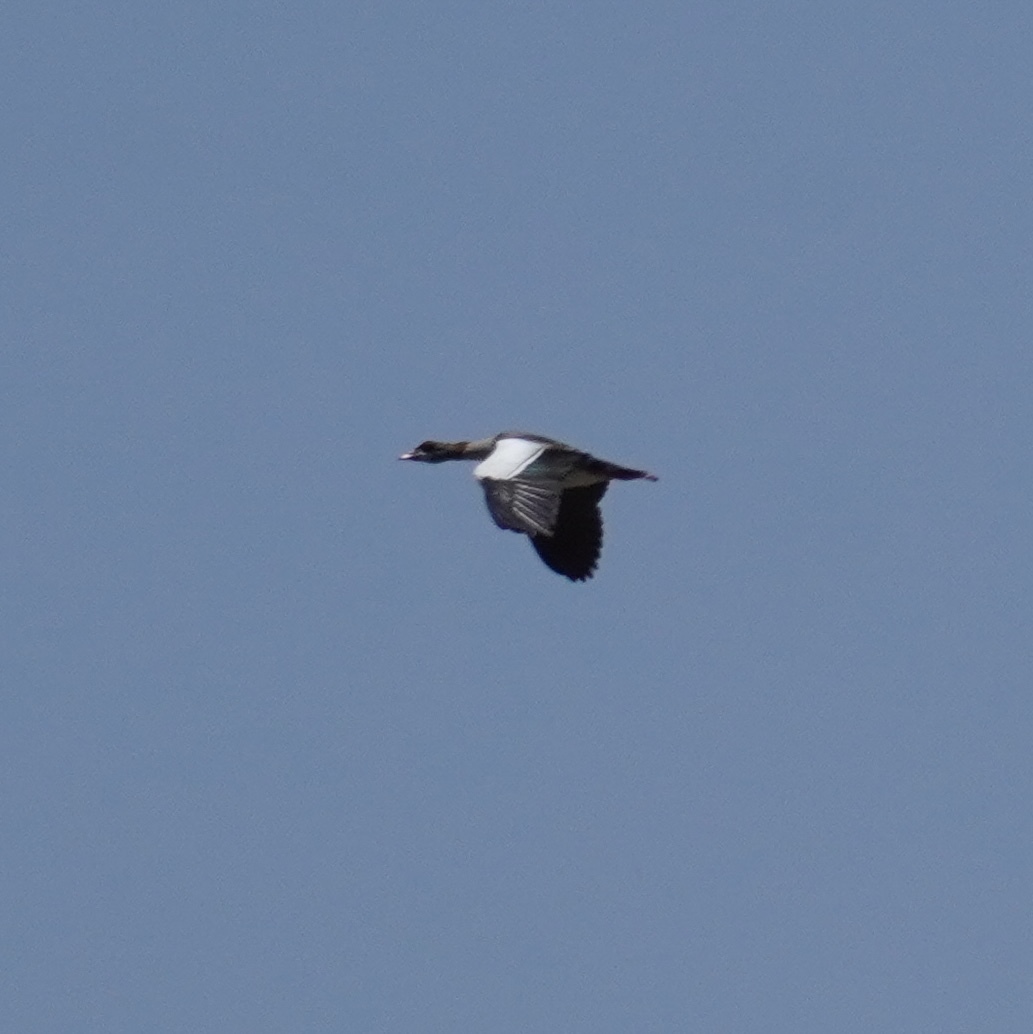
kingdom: Animalia
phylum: Chordata
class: Aves
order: Anseriformes
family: Anatidae
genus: Alopochen
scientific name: Alopochen aegyptiaca
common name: Egyptian goose
